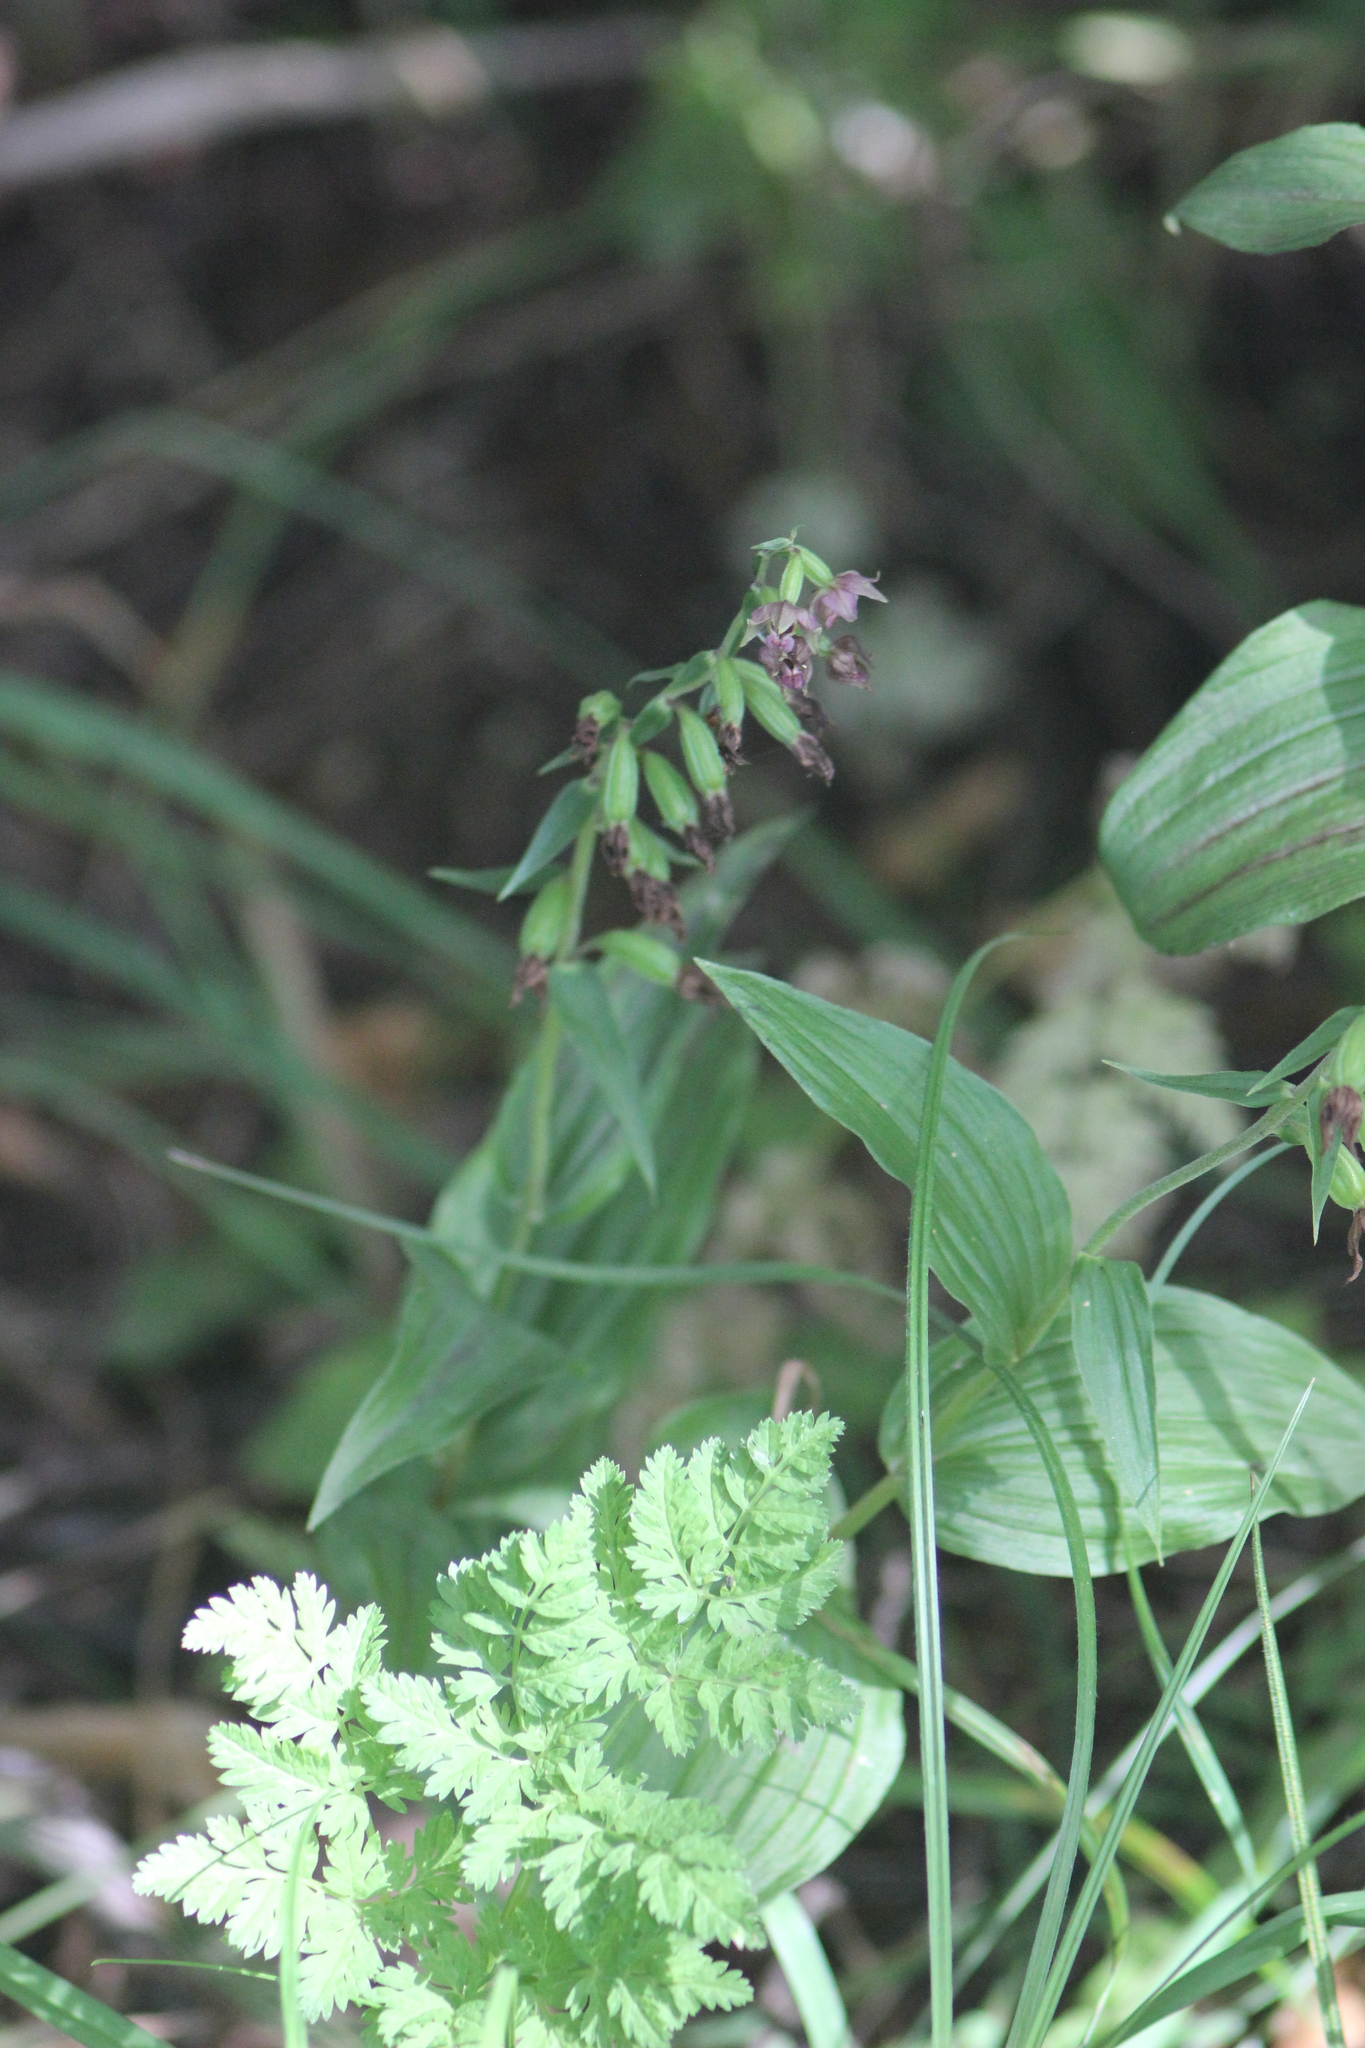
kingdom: Plantae
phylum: Tracheophyta
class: Liliopsida
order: Asparagales
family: Orchidaceae
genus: Epipactis
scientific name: Epipactis helleborine
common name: Broad-leaved helleborine
